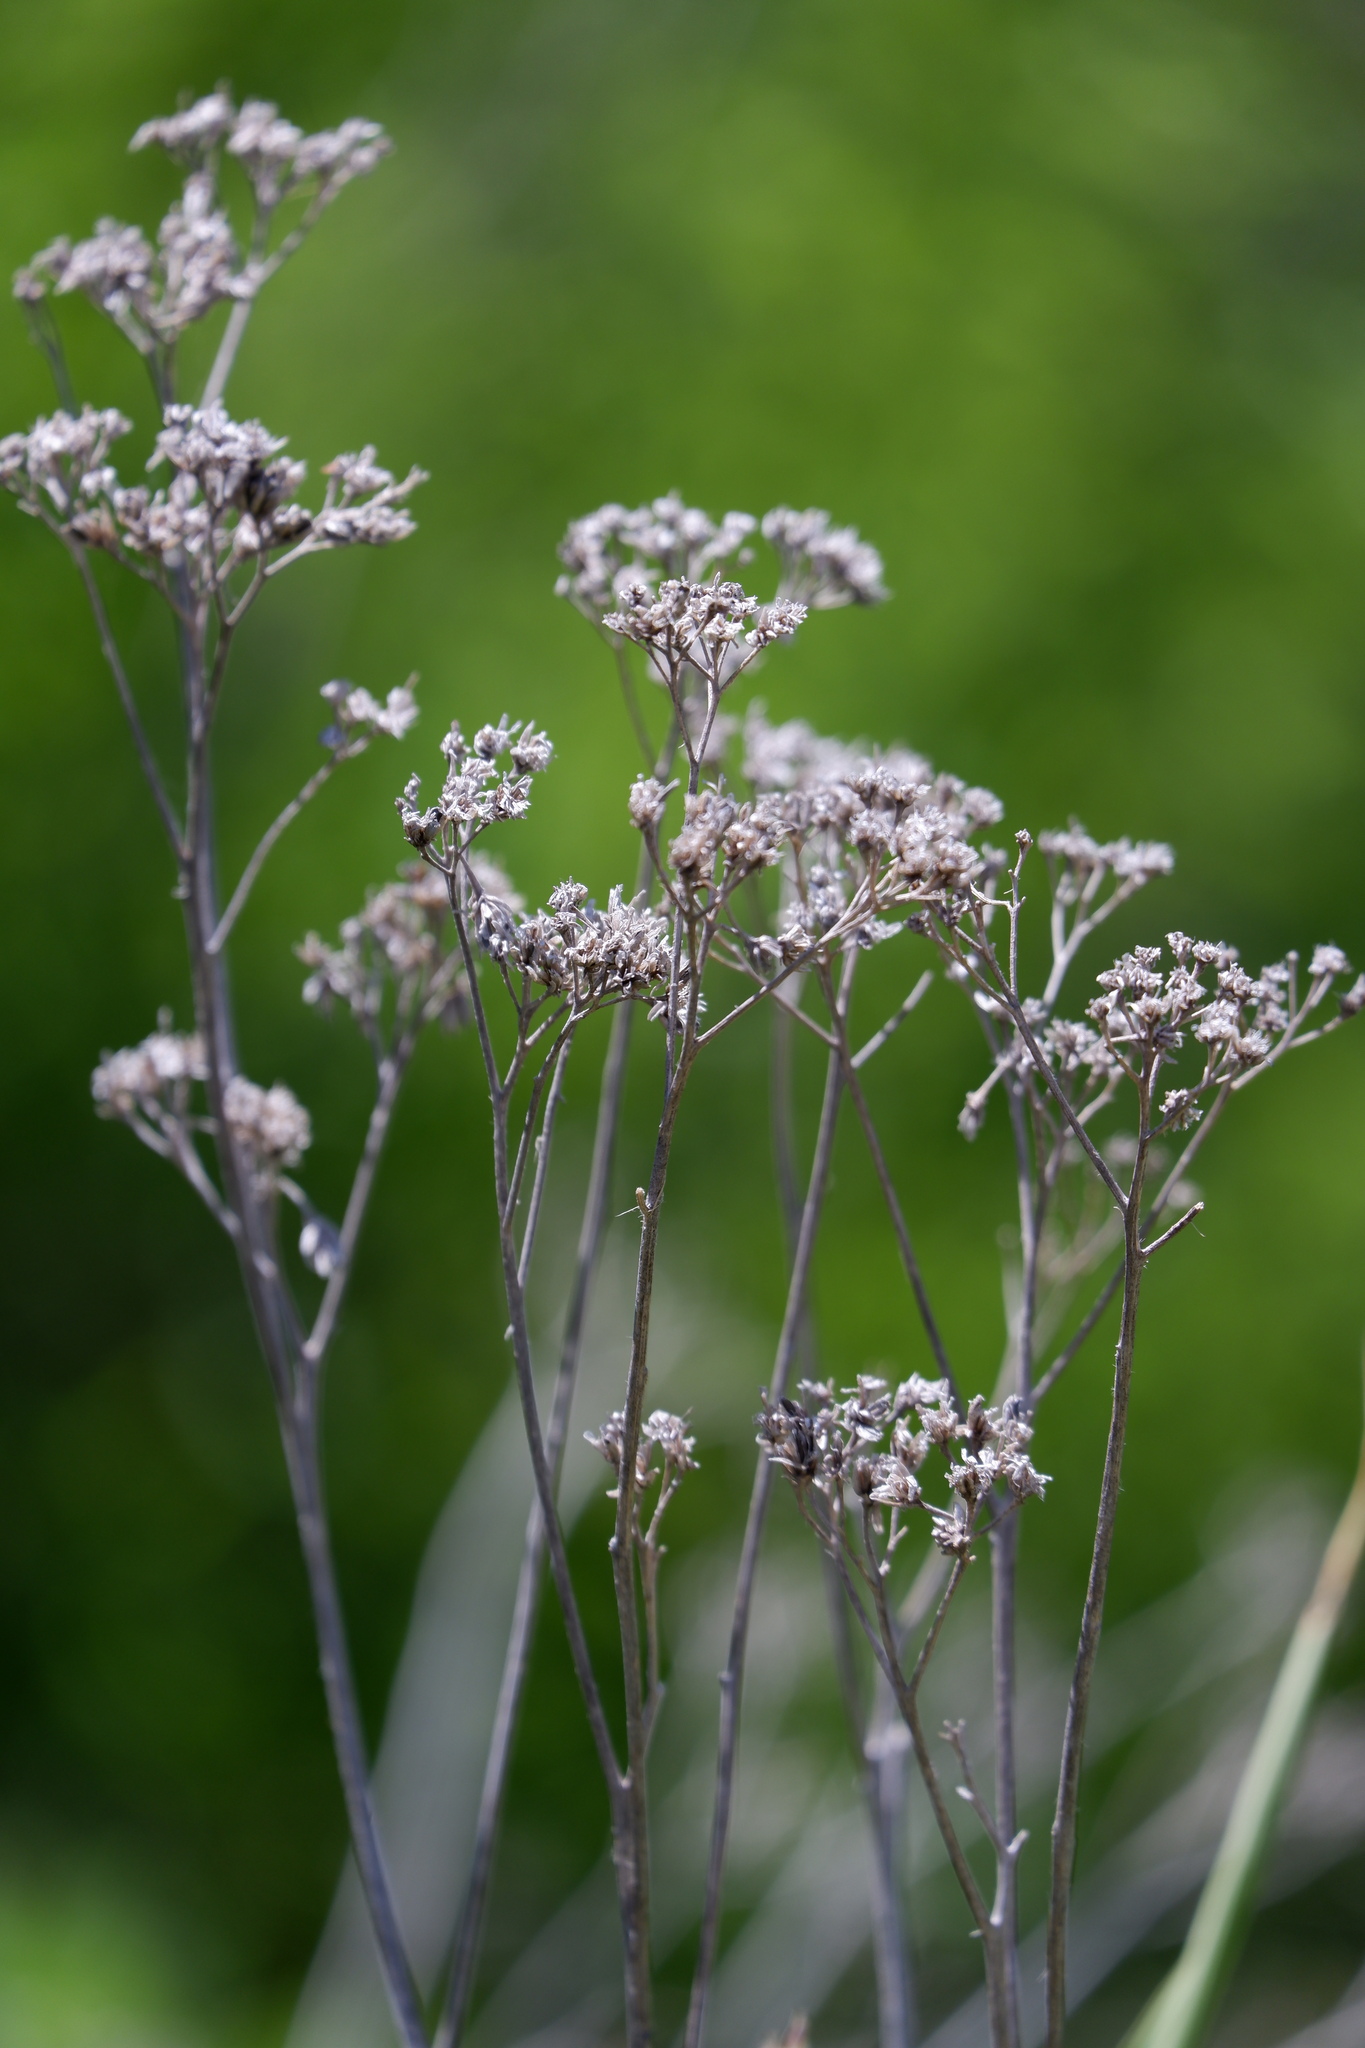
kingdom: Plantae
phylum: Tracheophyta
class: Magnoliopsida
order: Asterales
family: Asteraceae
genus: Verbesina
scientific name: Verbesina virginica
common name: Frostweed
